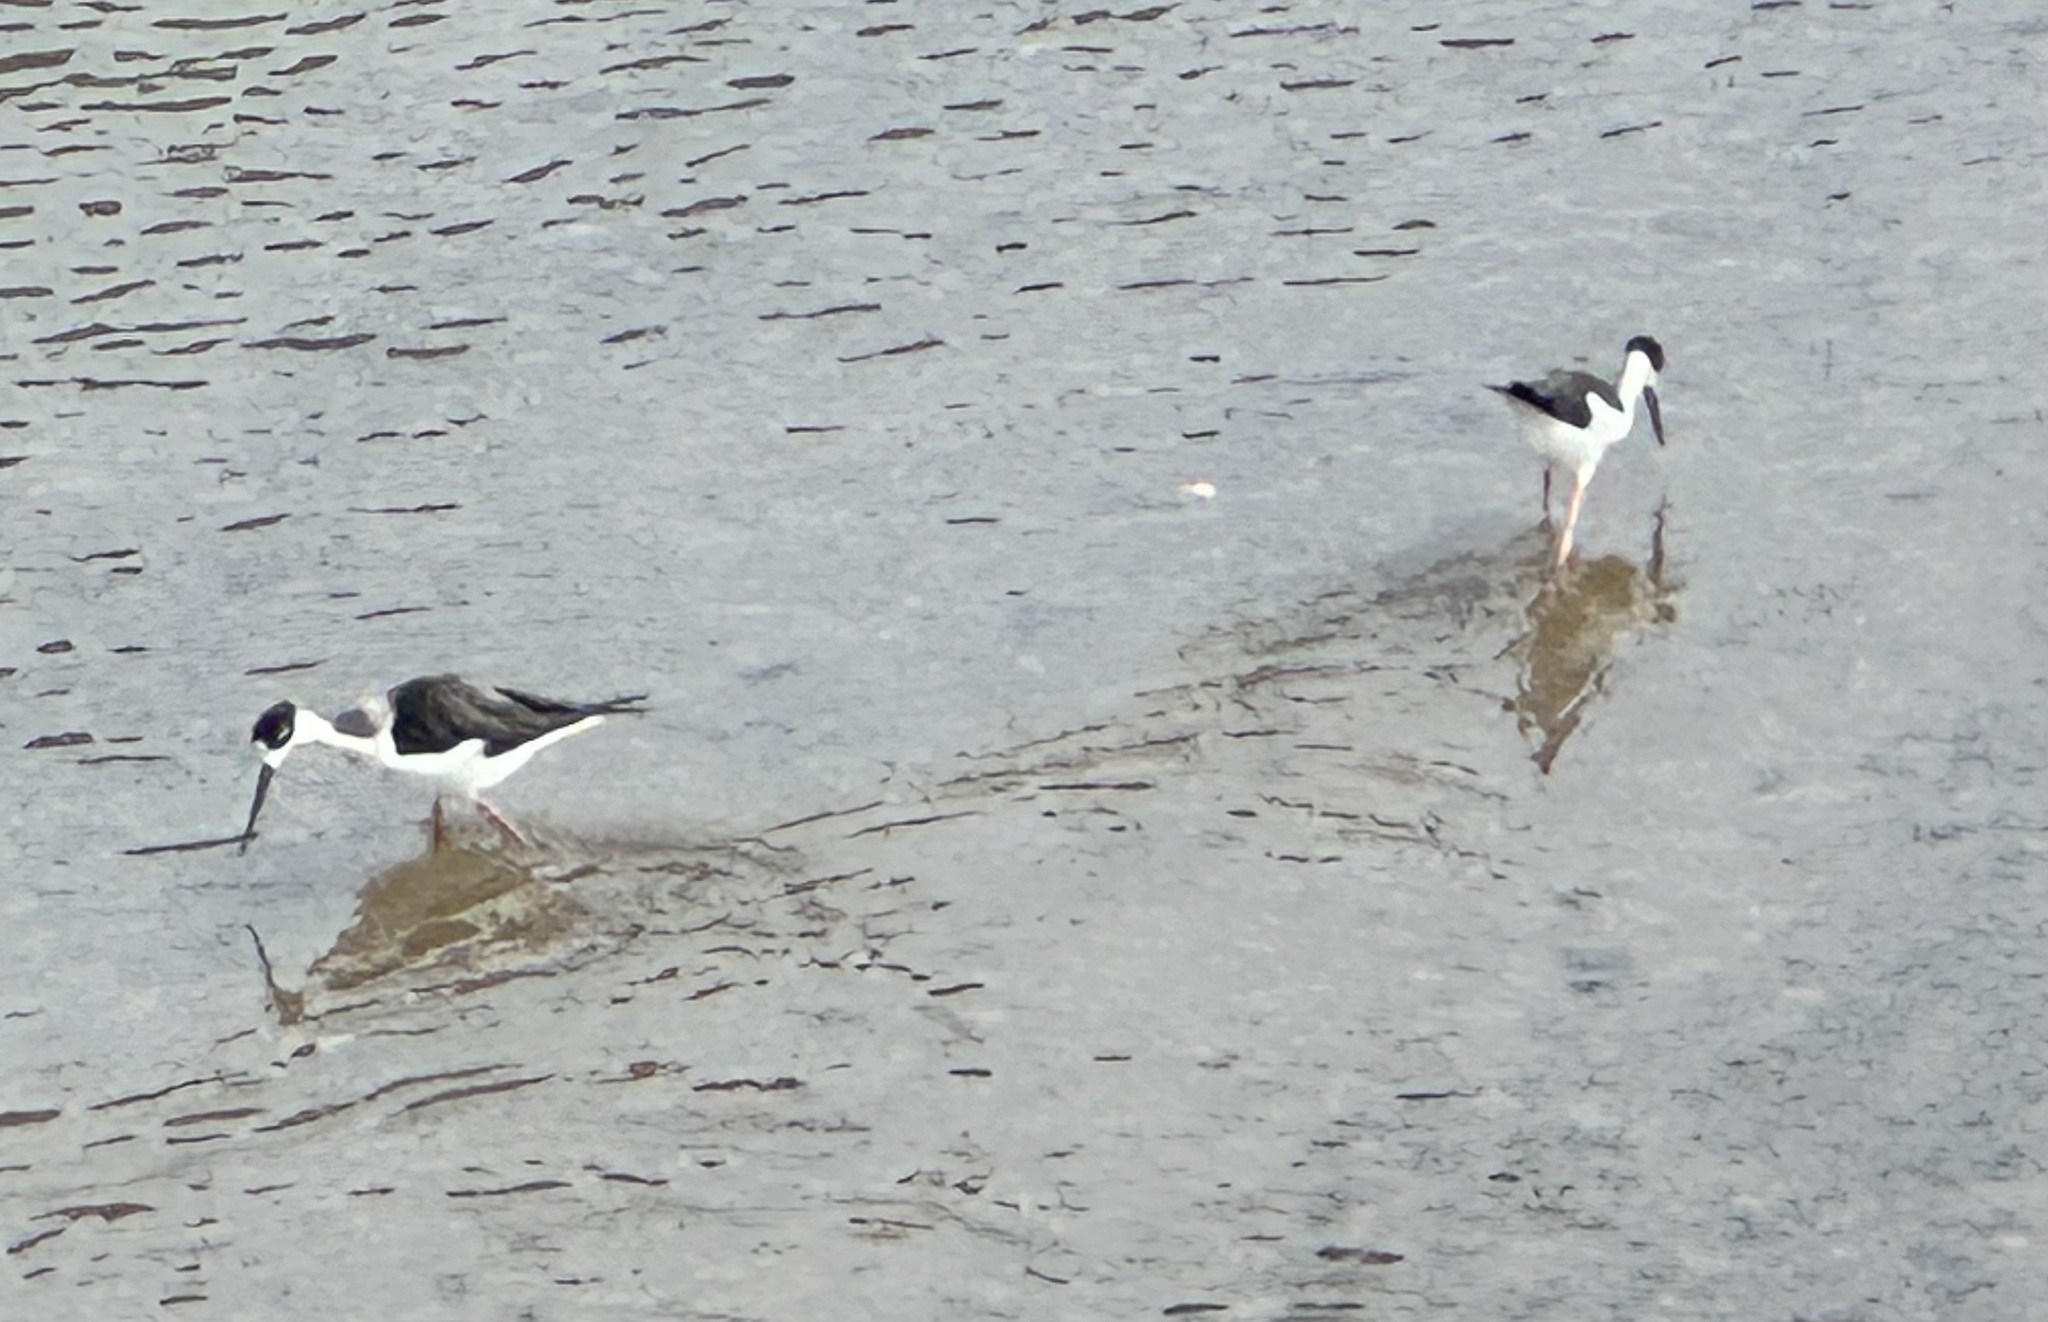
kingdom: Animalia
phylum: Chordata
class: Aves
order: Charadriiformes
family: Recurvirostridae
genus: Himantopus
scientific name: Himantopus mexicanus
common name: Black-necked stilt
